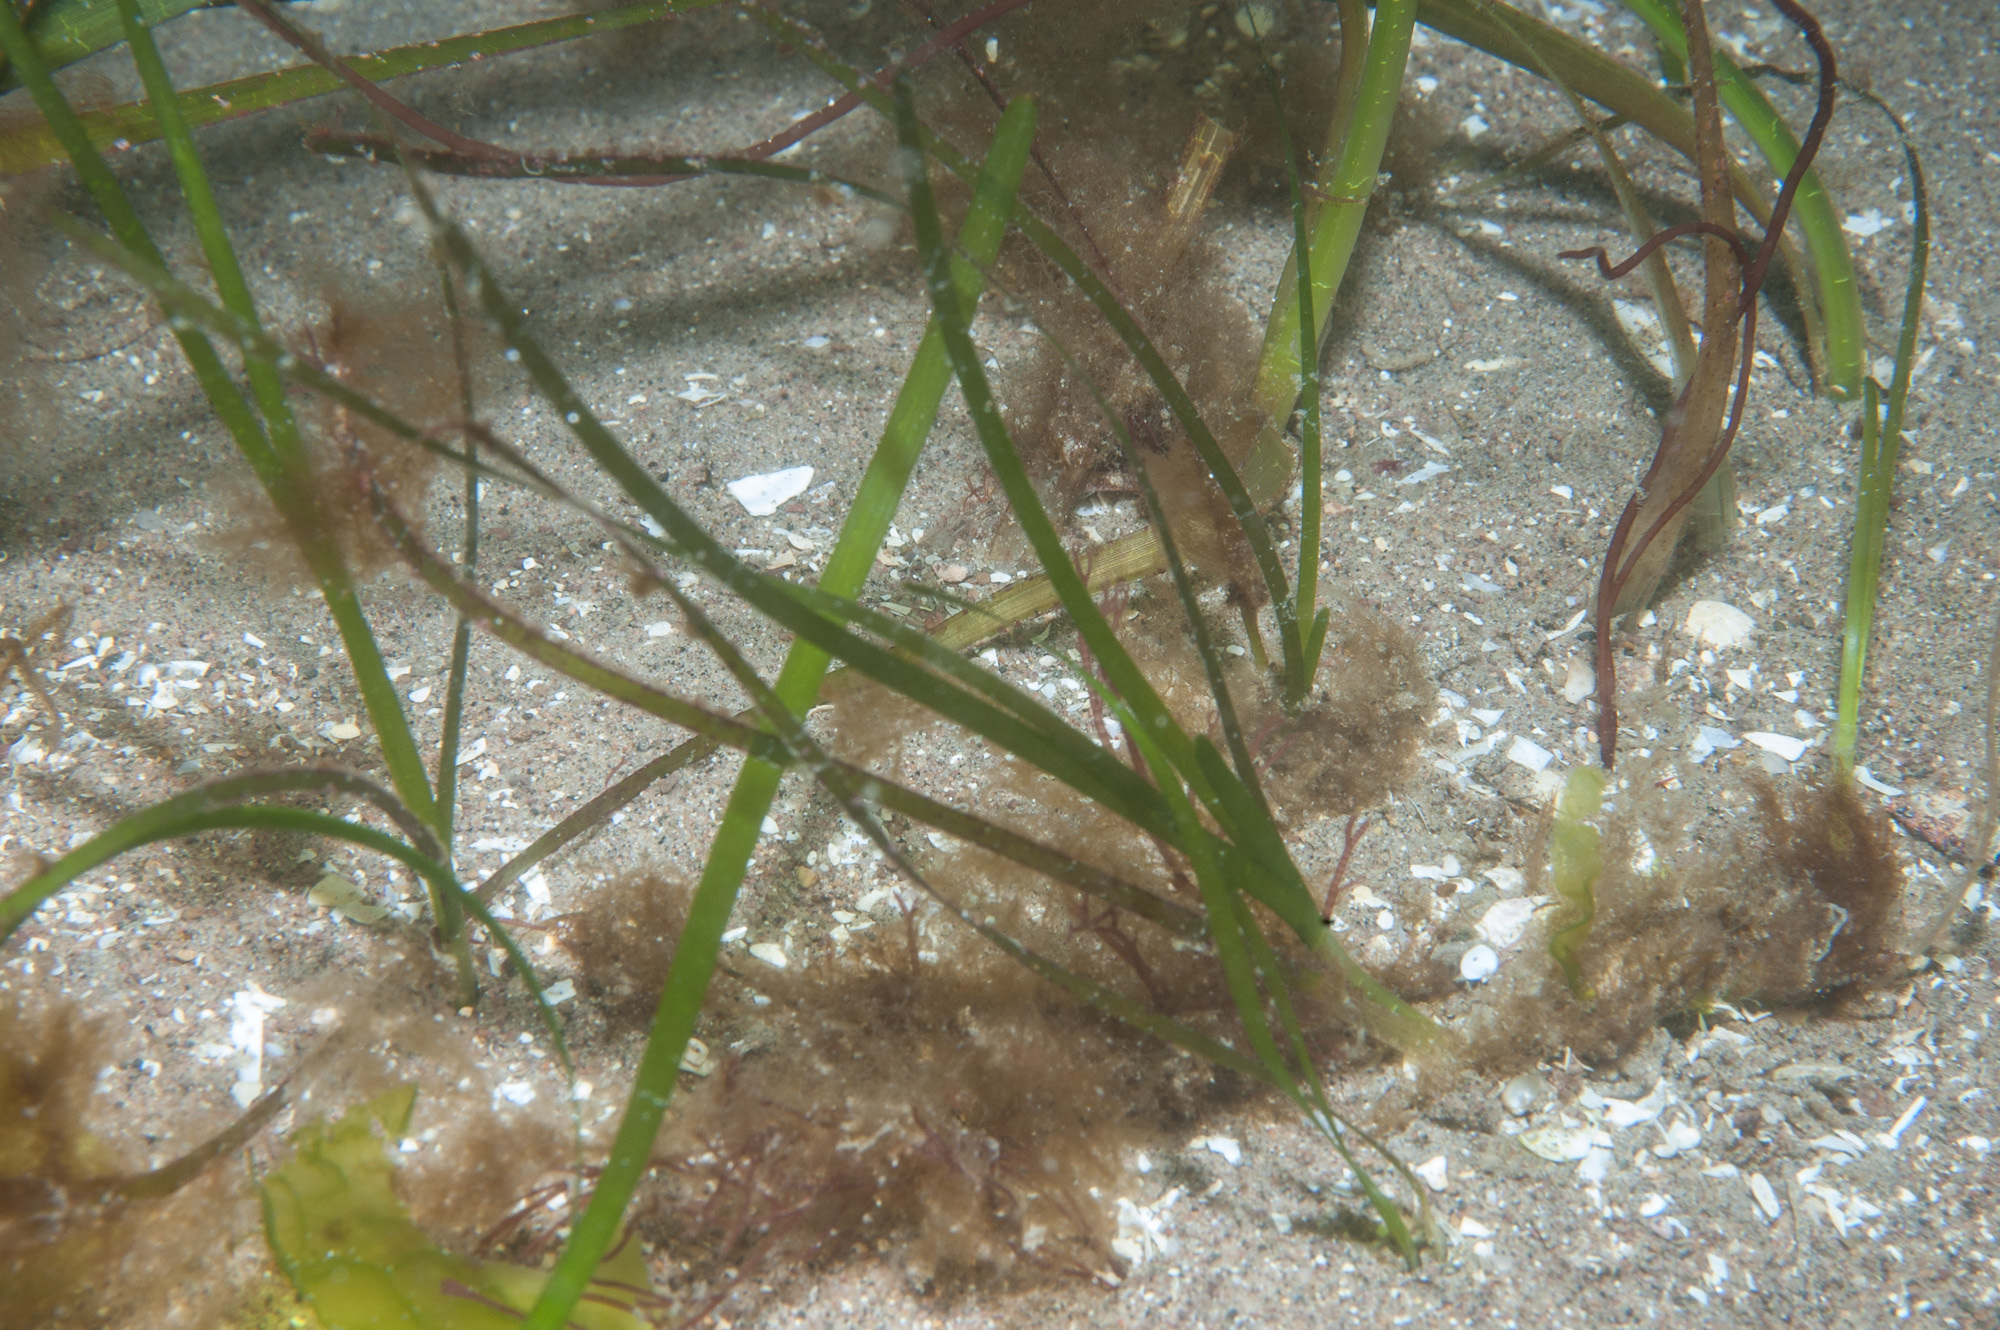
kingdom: Plantae
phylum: Tracheophyta
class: Liliopsida
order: Alismatales
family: Zosteraceae
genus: Zostera
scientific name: Zostera marina
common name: Eelgrass
